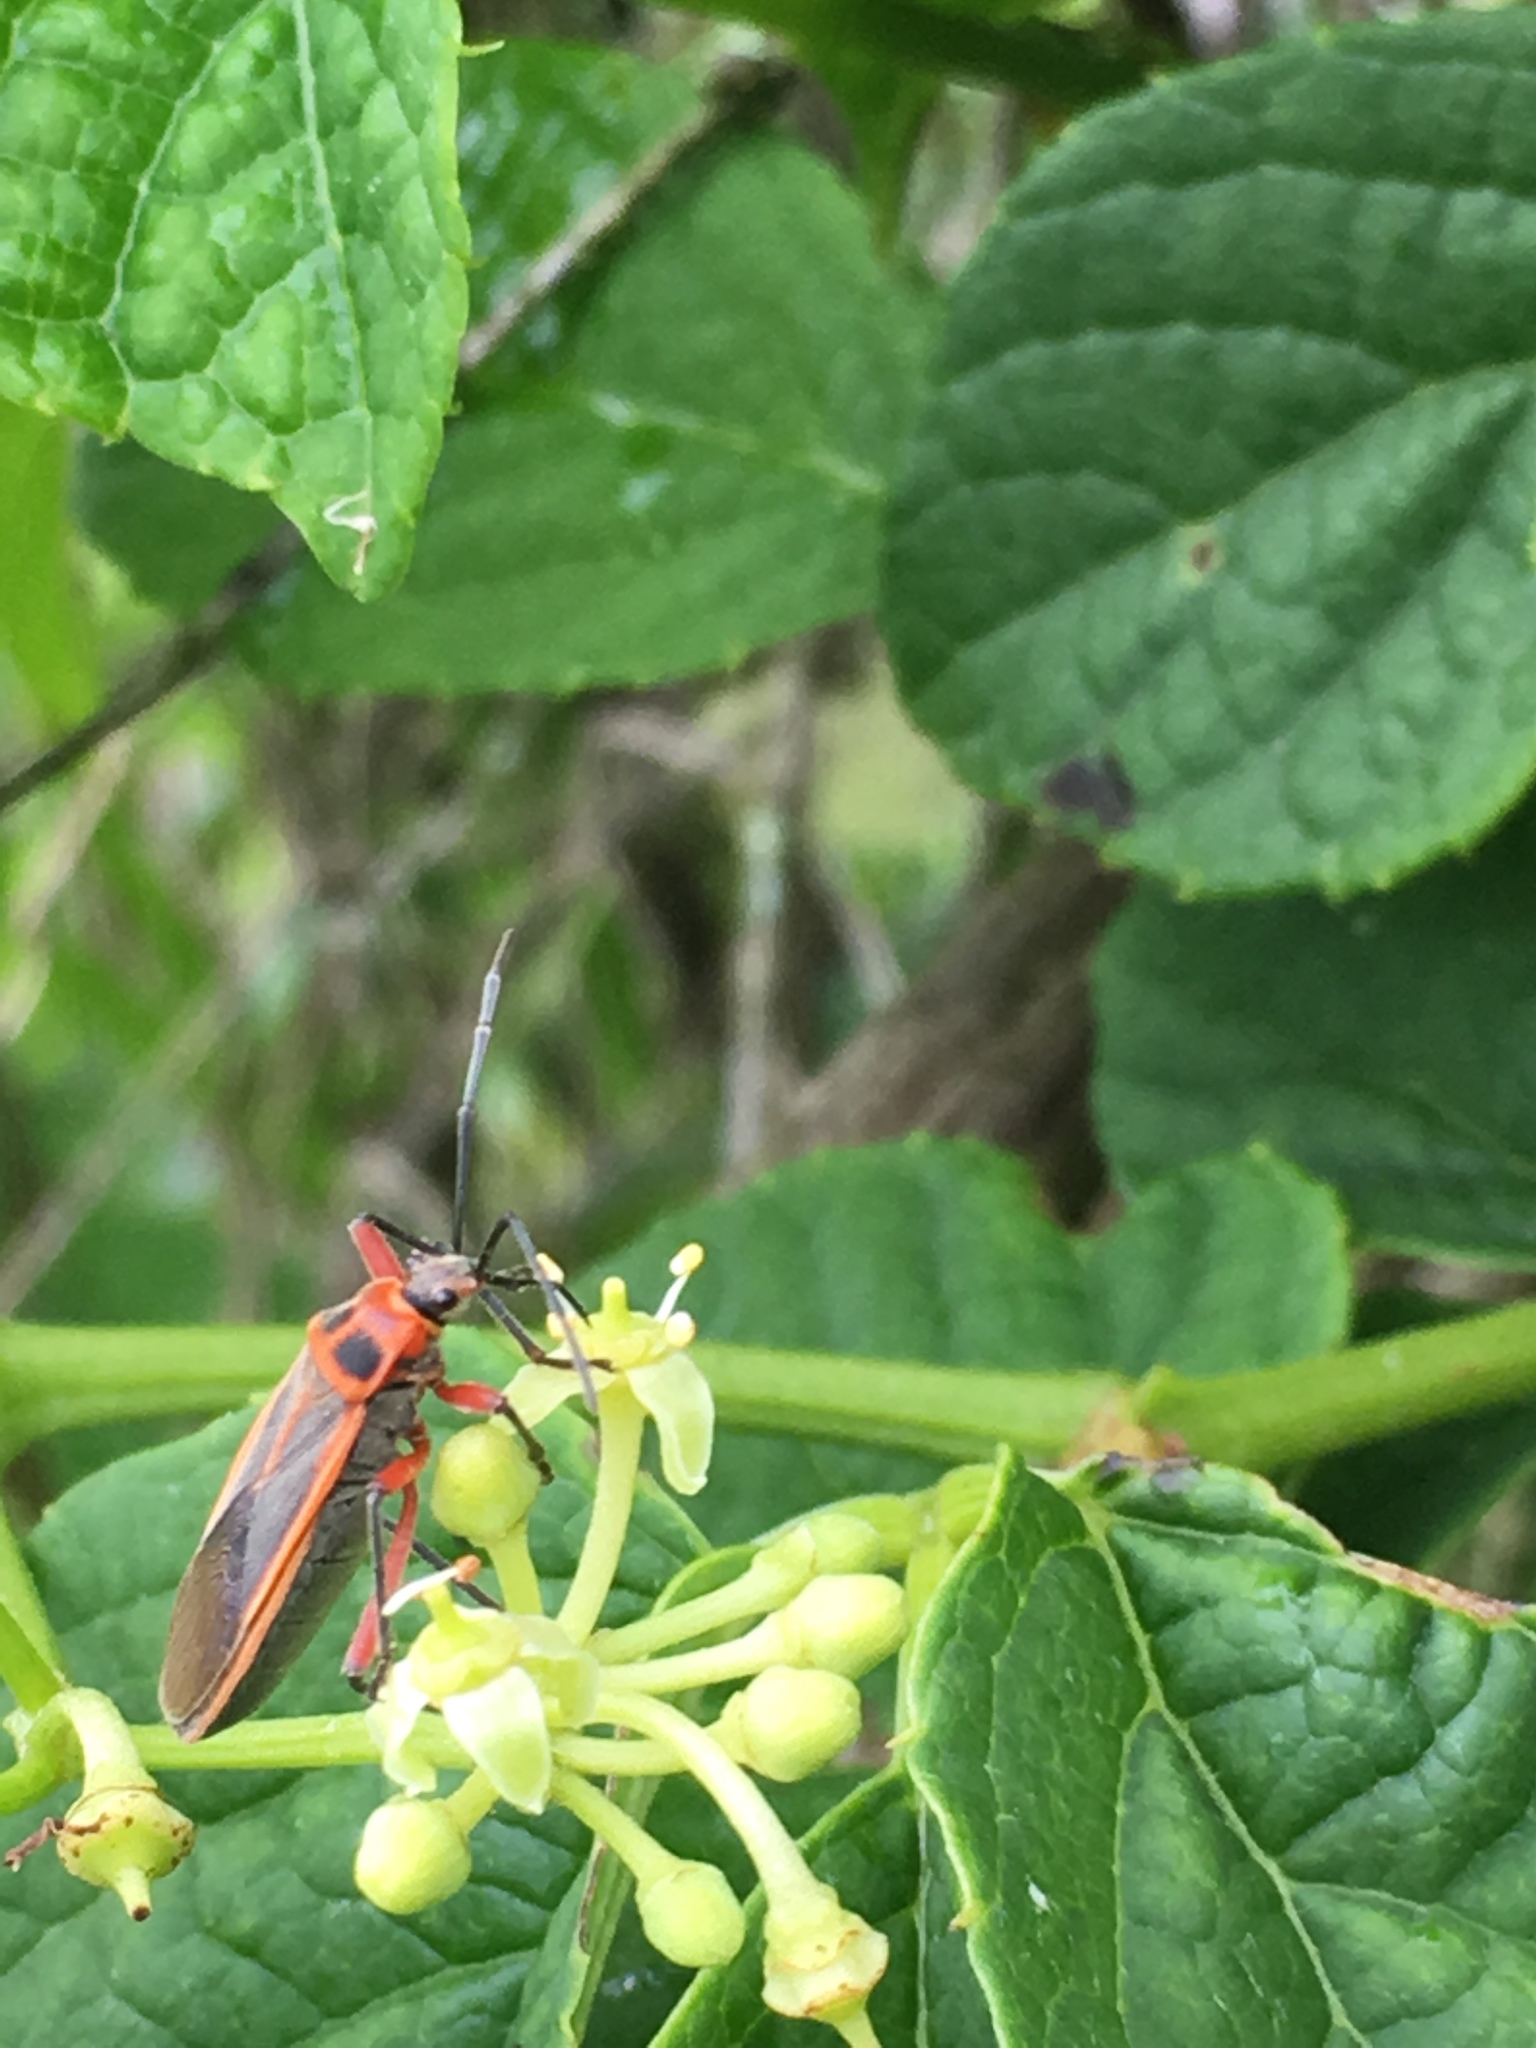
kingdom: Animalia
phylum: Arthropoda
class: Insecta
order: Hemiptera
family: Largidae
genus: Stenomacra
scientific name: Stenomacra marginella
